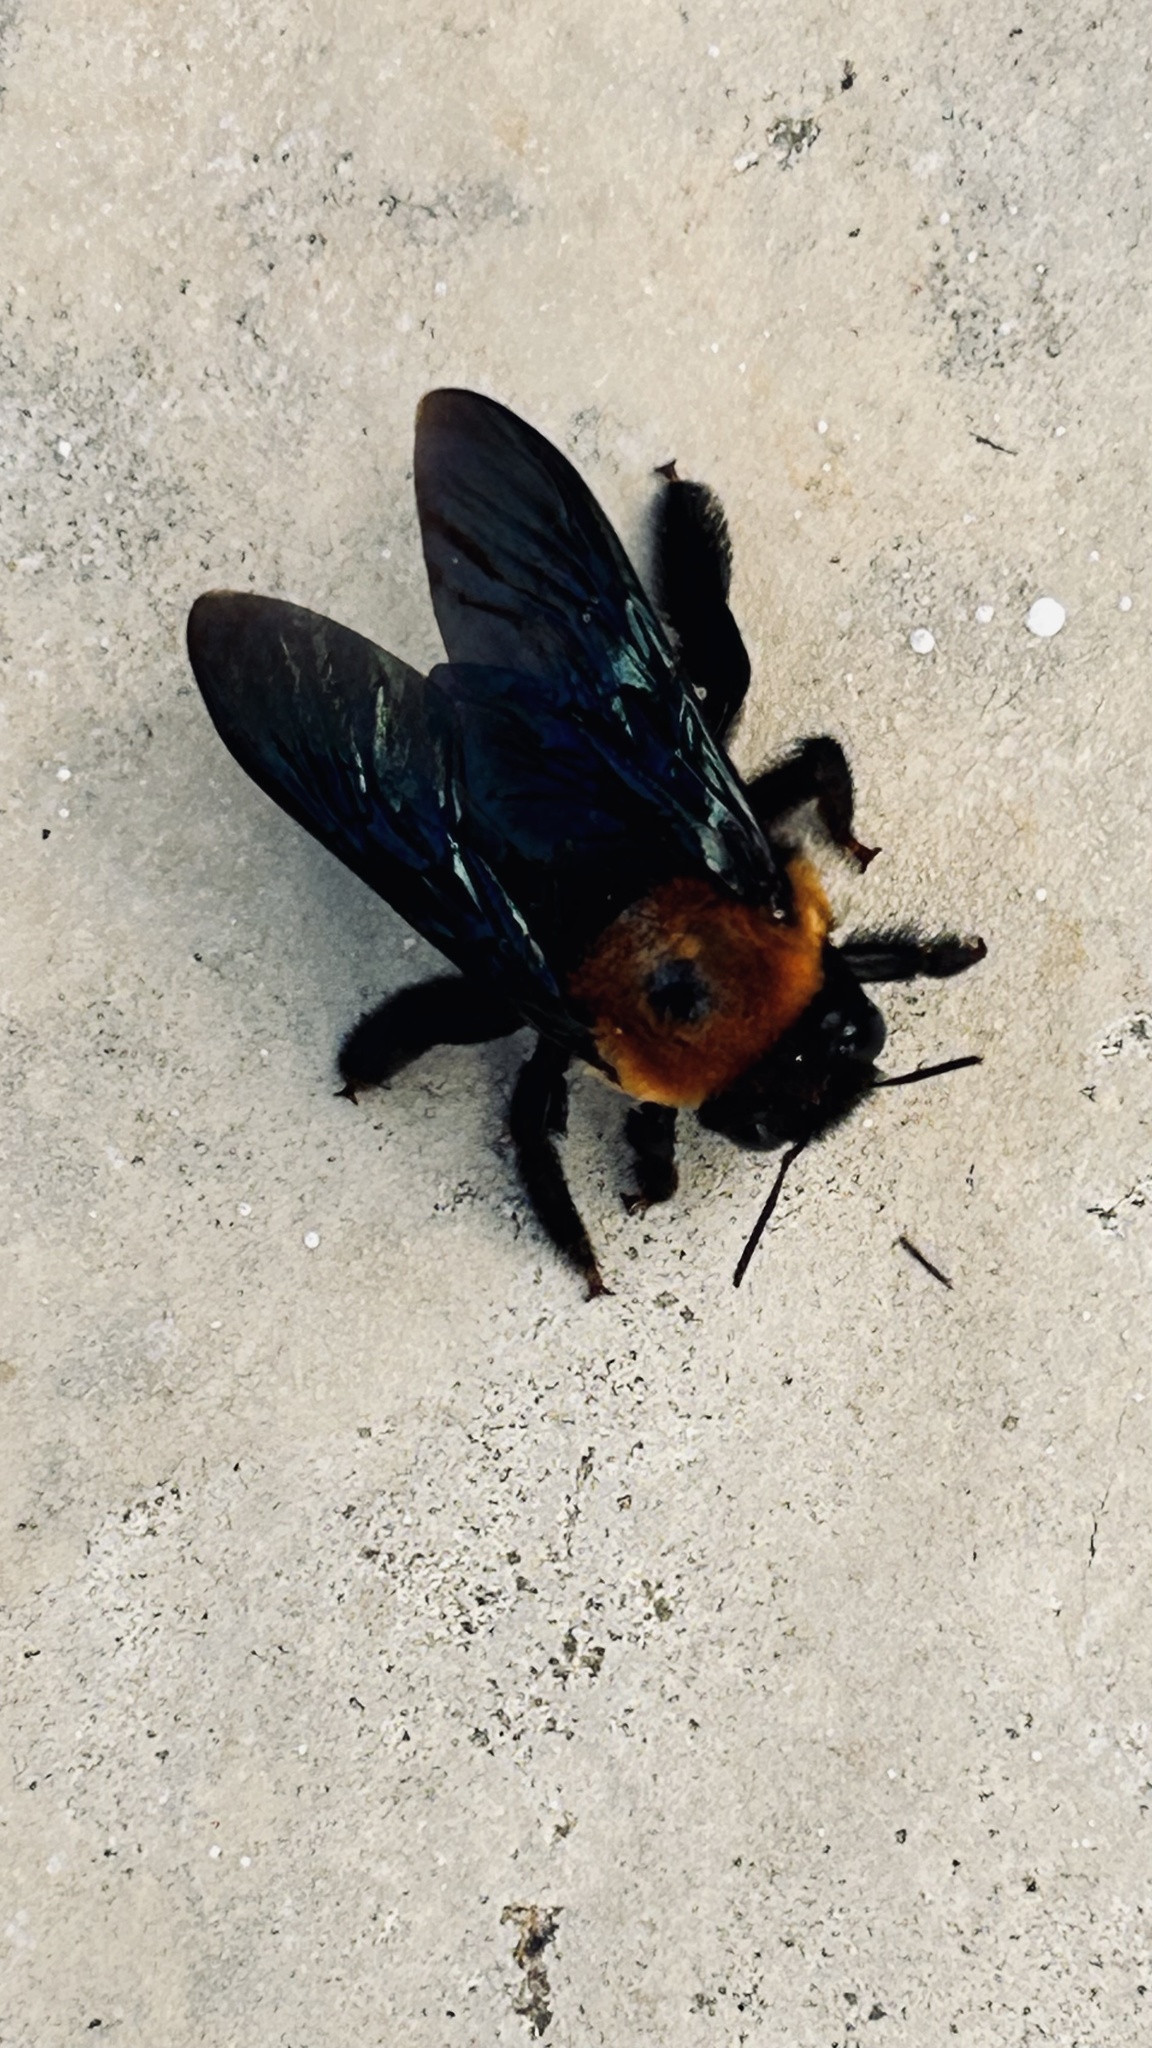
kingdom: Animalia
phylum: Arthropoda
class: Insecta
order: Hymenoptera
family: Apidae
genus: Xylocopa
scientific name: Xylocopa flavorufa
